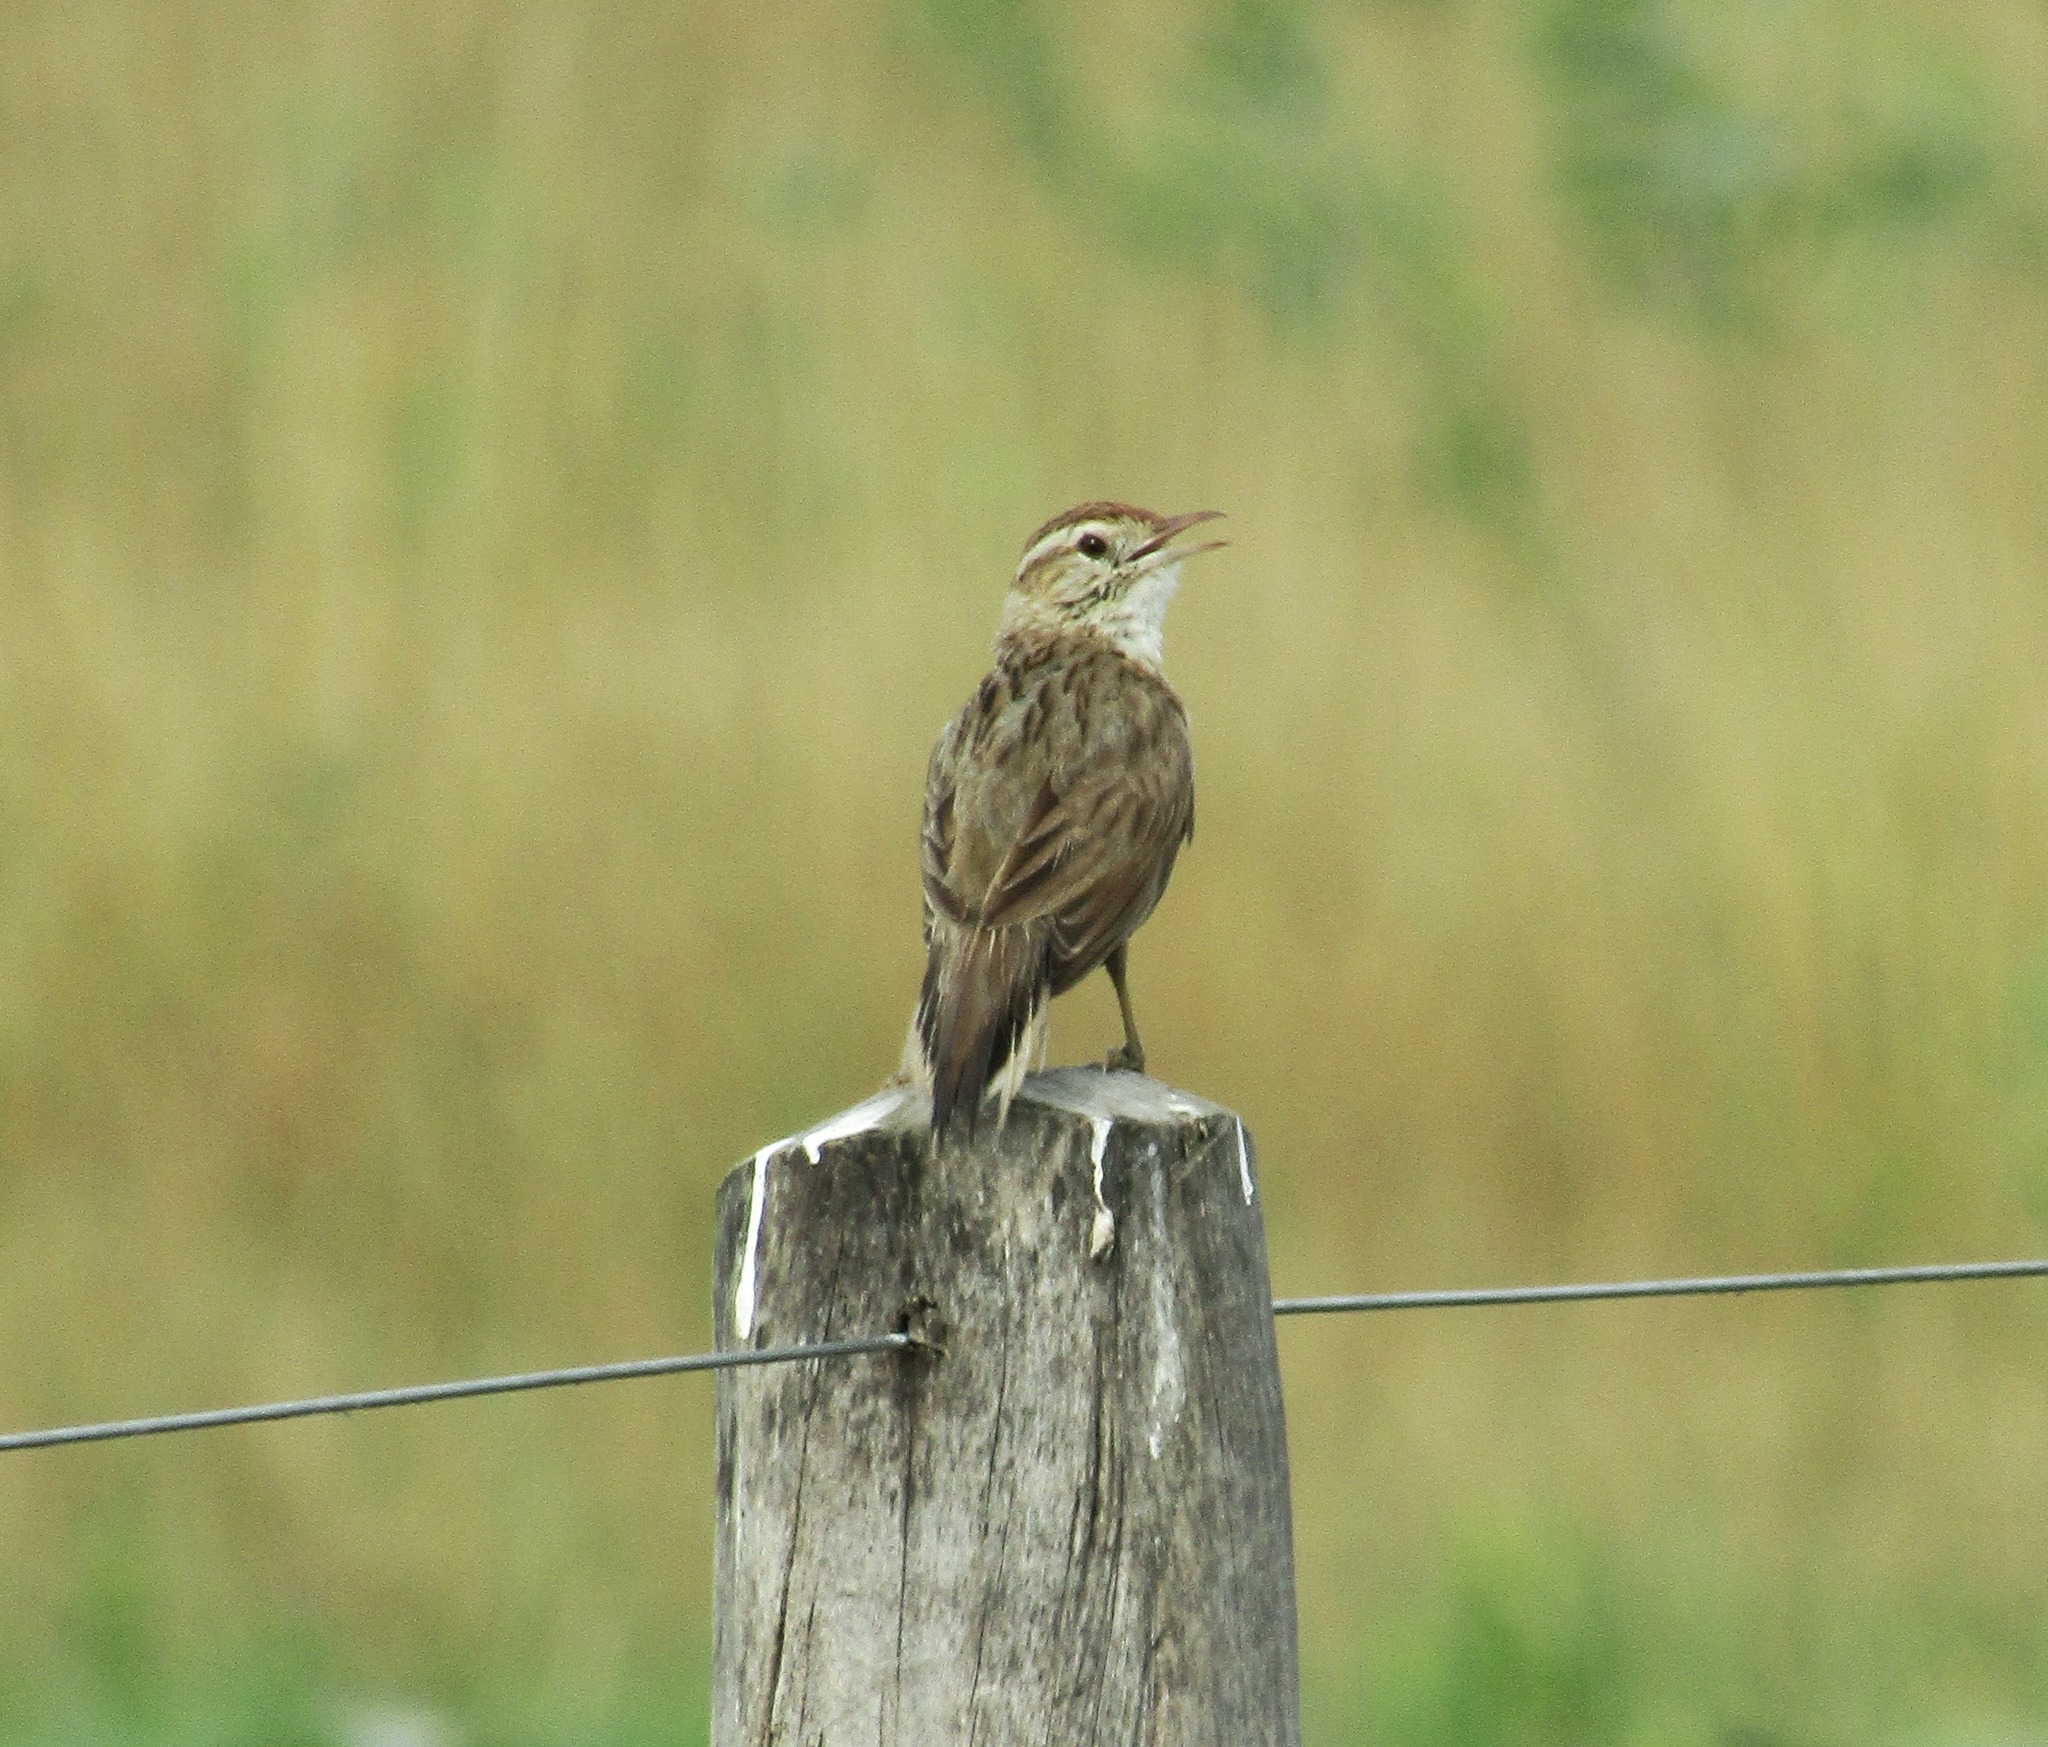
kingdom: Animalia
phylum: Chordata
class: Aves
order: Passeriformes
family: Furnariidae
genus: Anumbius
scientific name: Anumbius annumbi
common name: Firewood-gatherer
